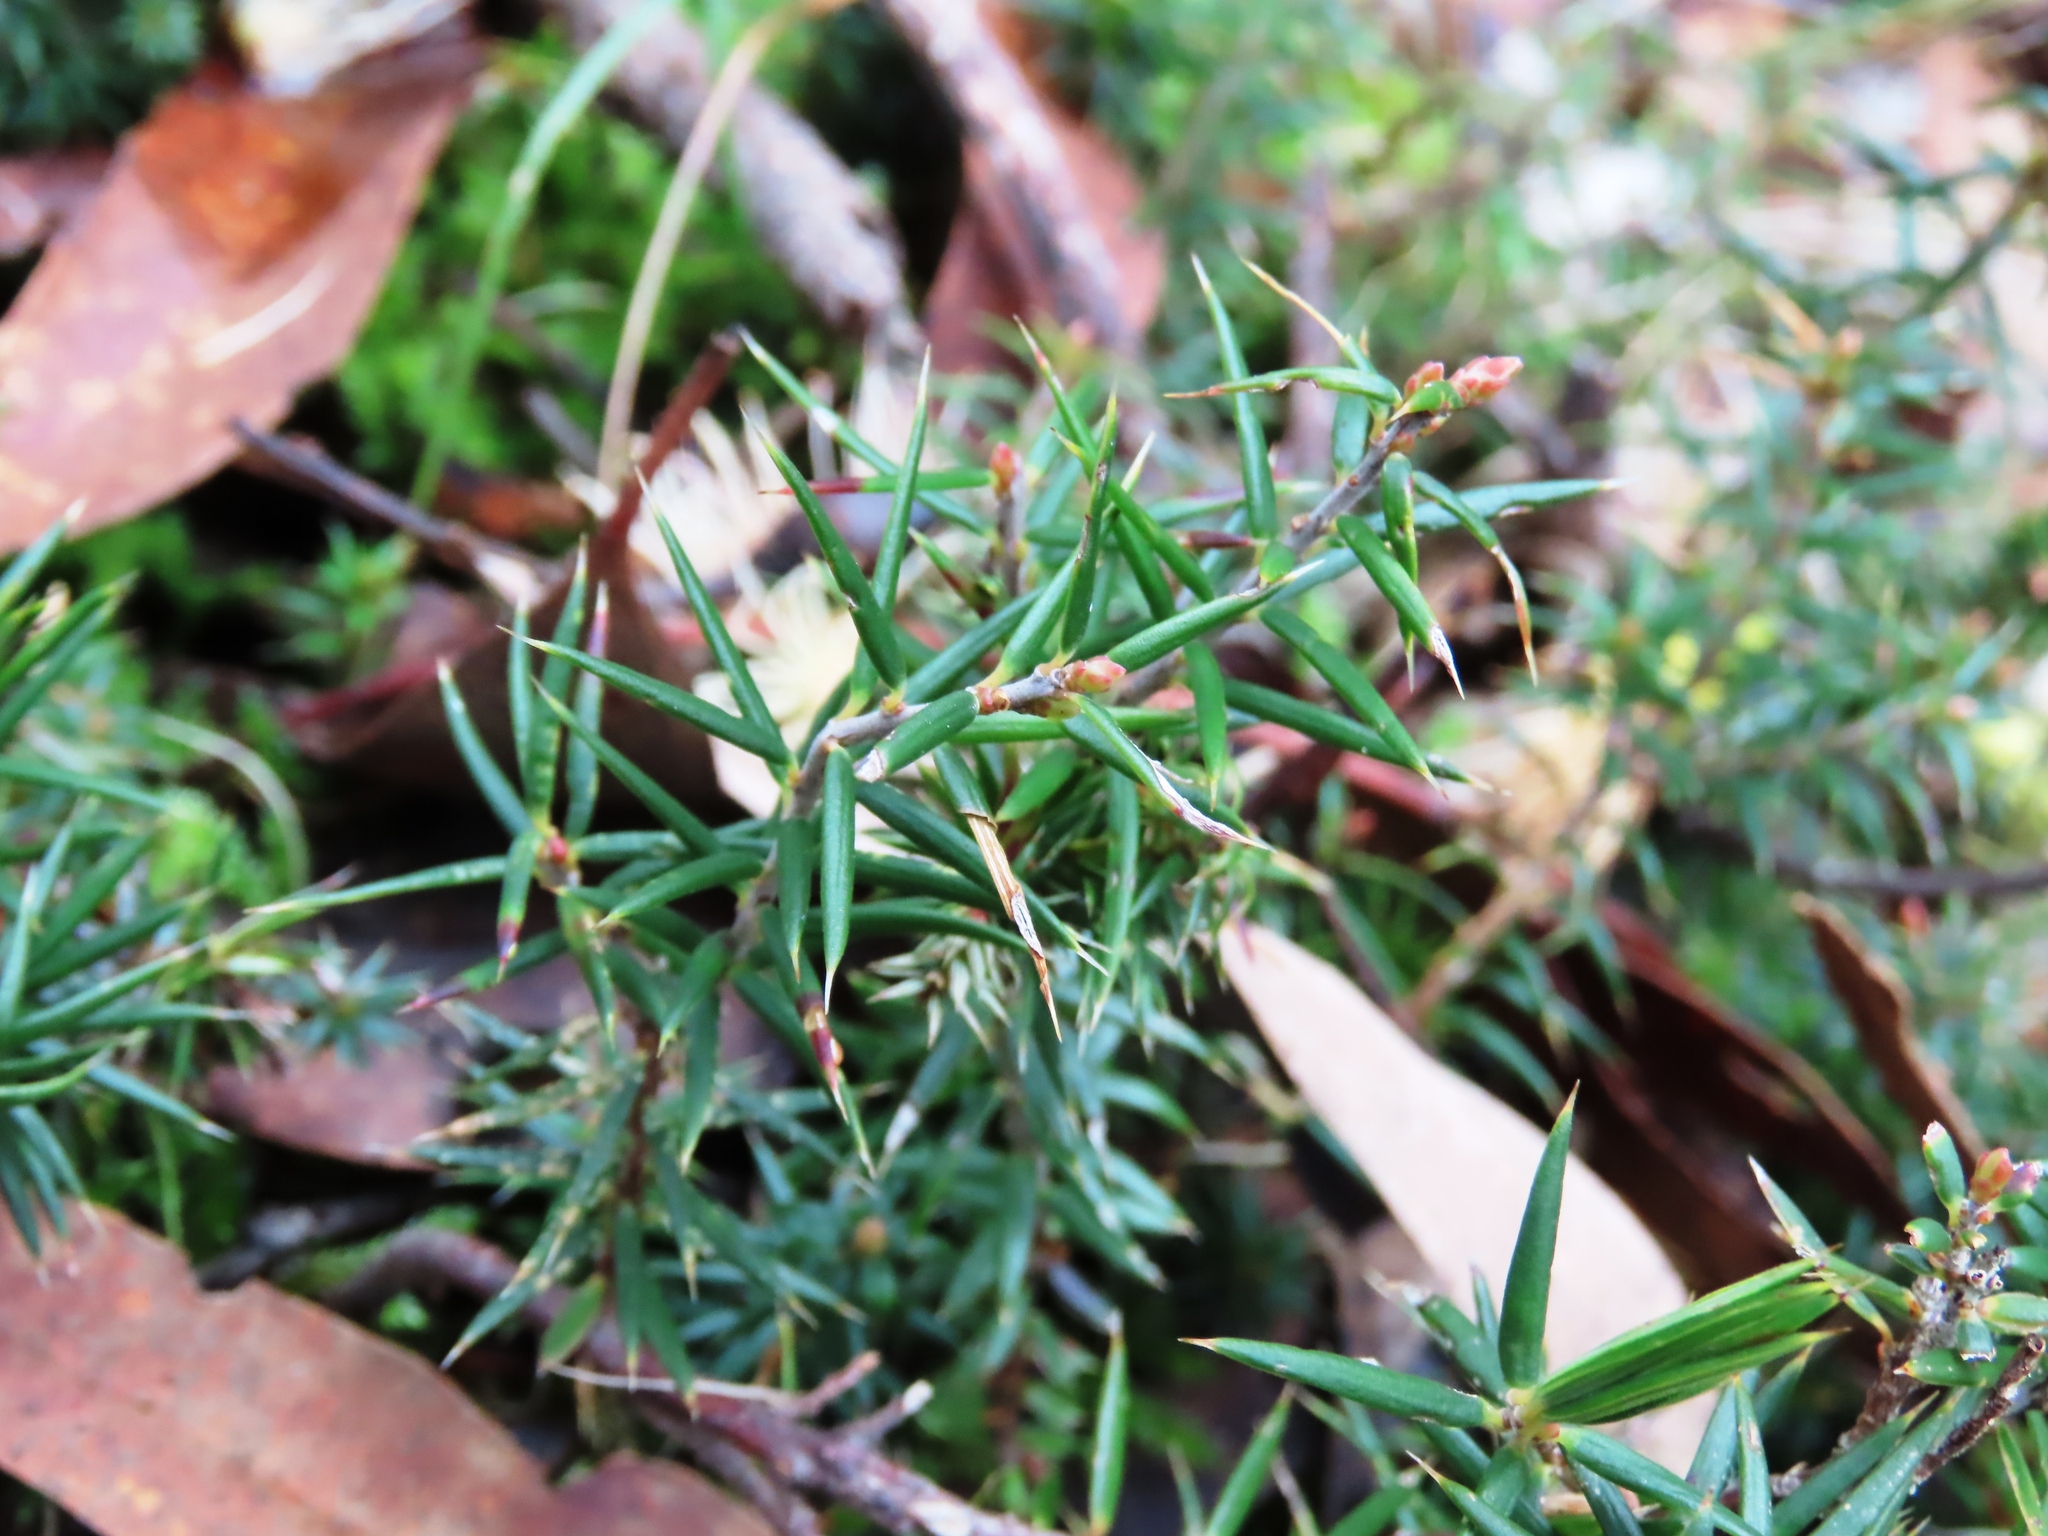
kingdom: Plantae
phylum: Tracheophyta
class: Magnoliopsida
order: Ericales
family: Ericaceae
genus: Lissanthe
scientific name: Lissanthe strigosa
